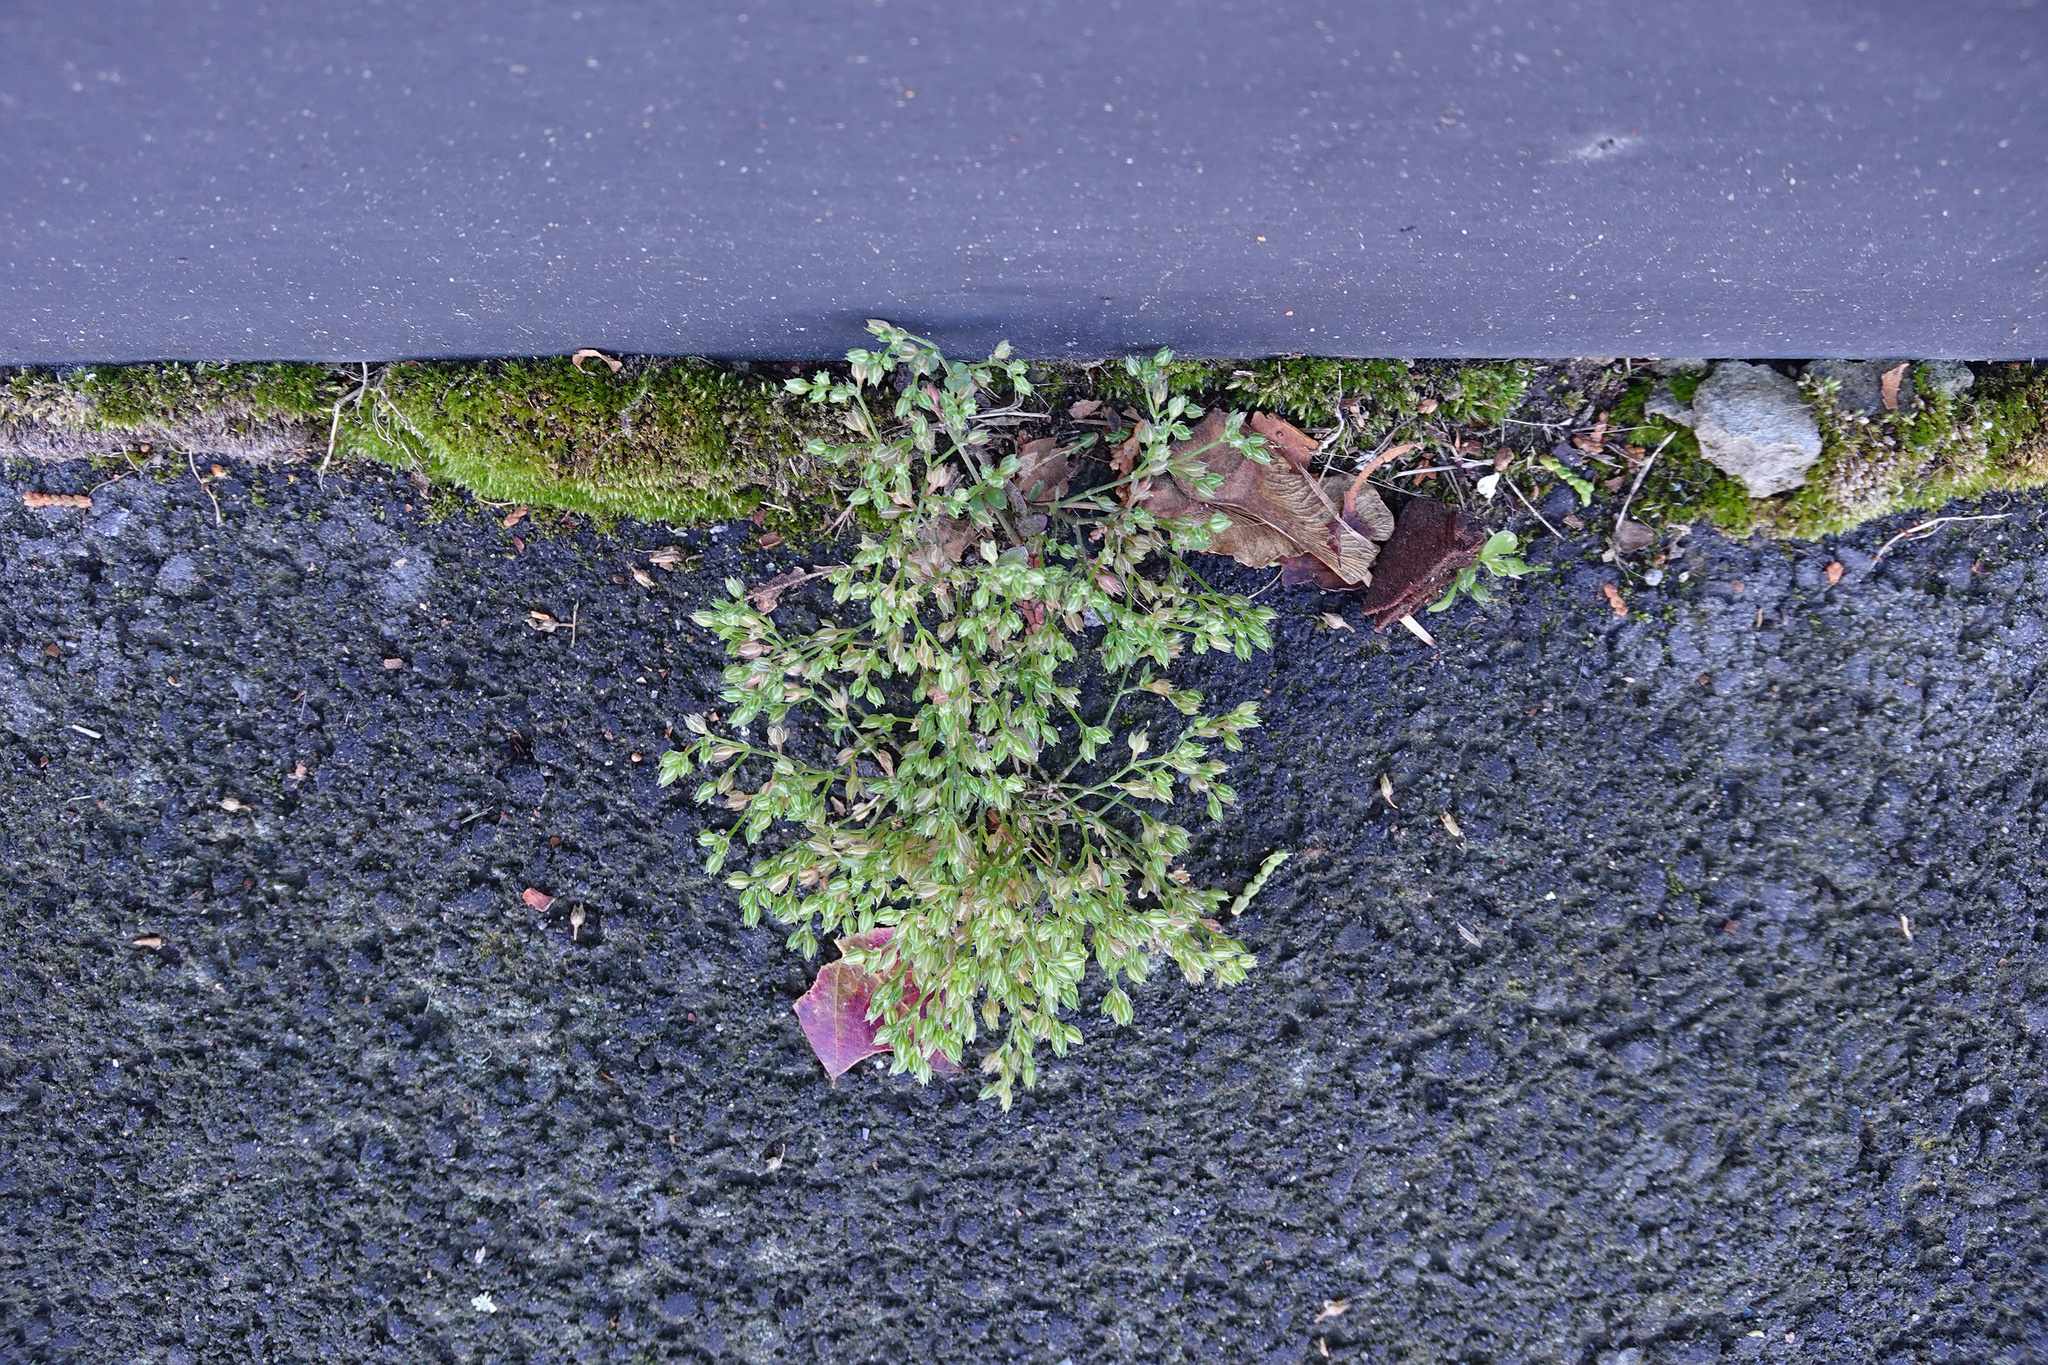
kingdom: Plantae
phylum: Tracheophyta
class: Magnoliopsida
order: Caryophyllales
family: Caryophyllaceae
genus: Polycarpon
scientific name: Polycarpon tetraphyllum
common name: Four-leaved all-seed
